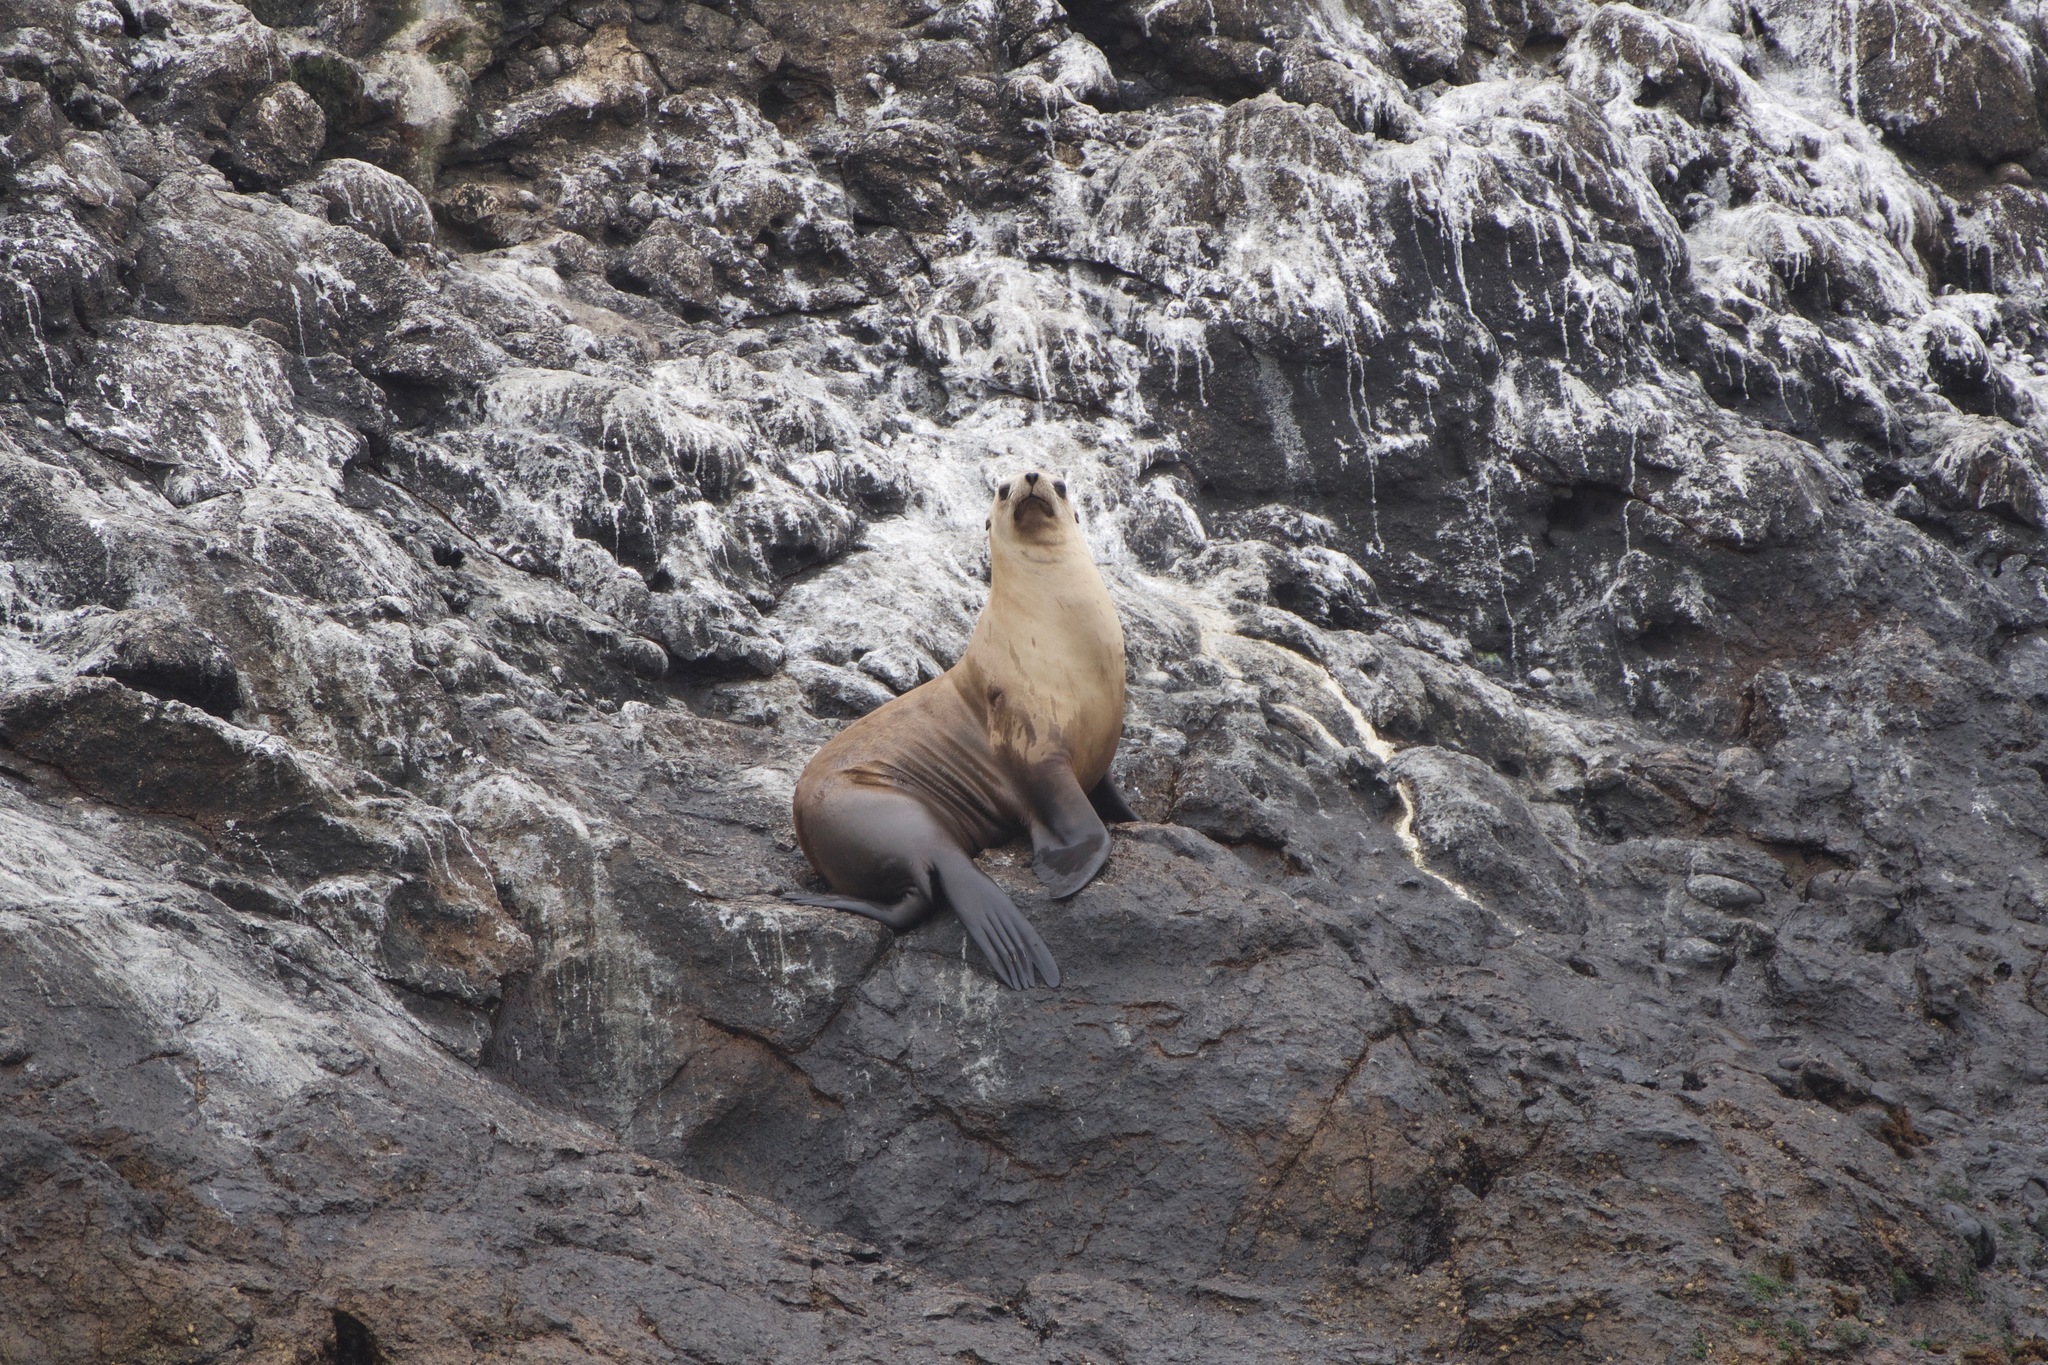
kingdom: Animalia
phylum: Chordata
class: Mammalia
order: Carnivora
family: Otariidae
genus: Eumetopias
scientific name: Eumetopias jubatus
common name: Steller sea lion
